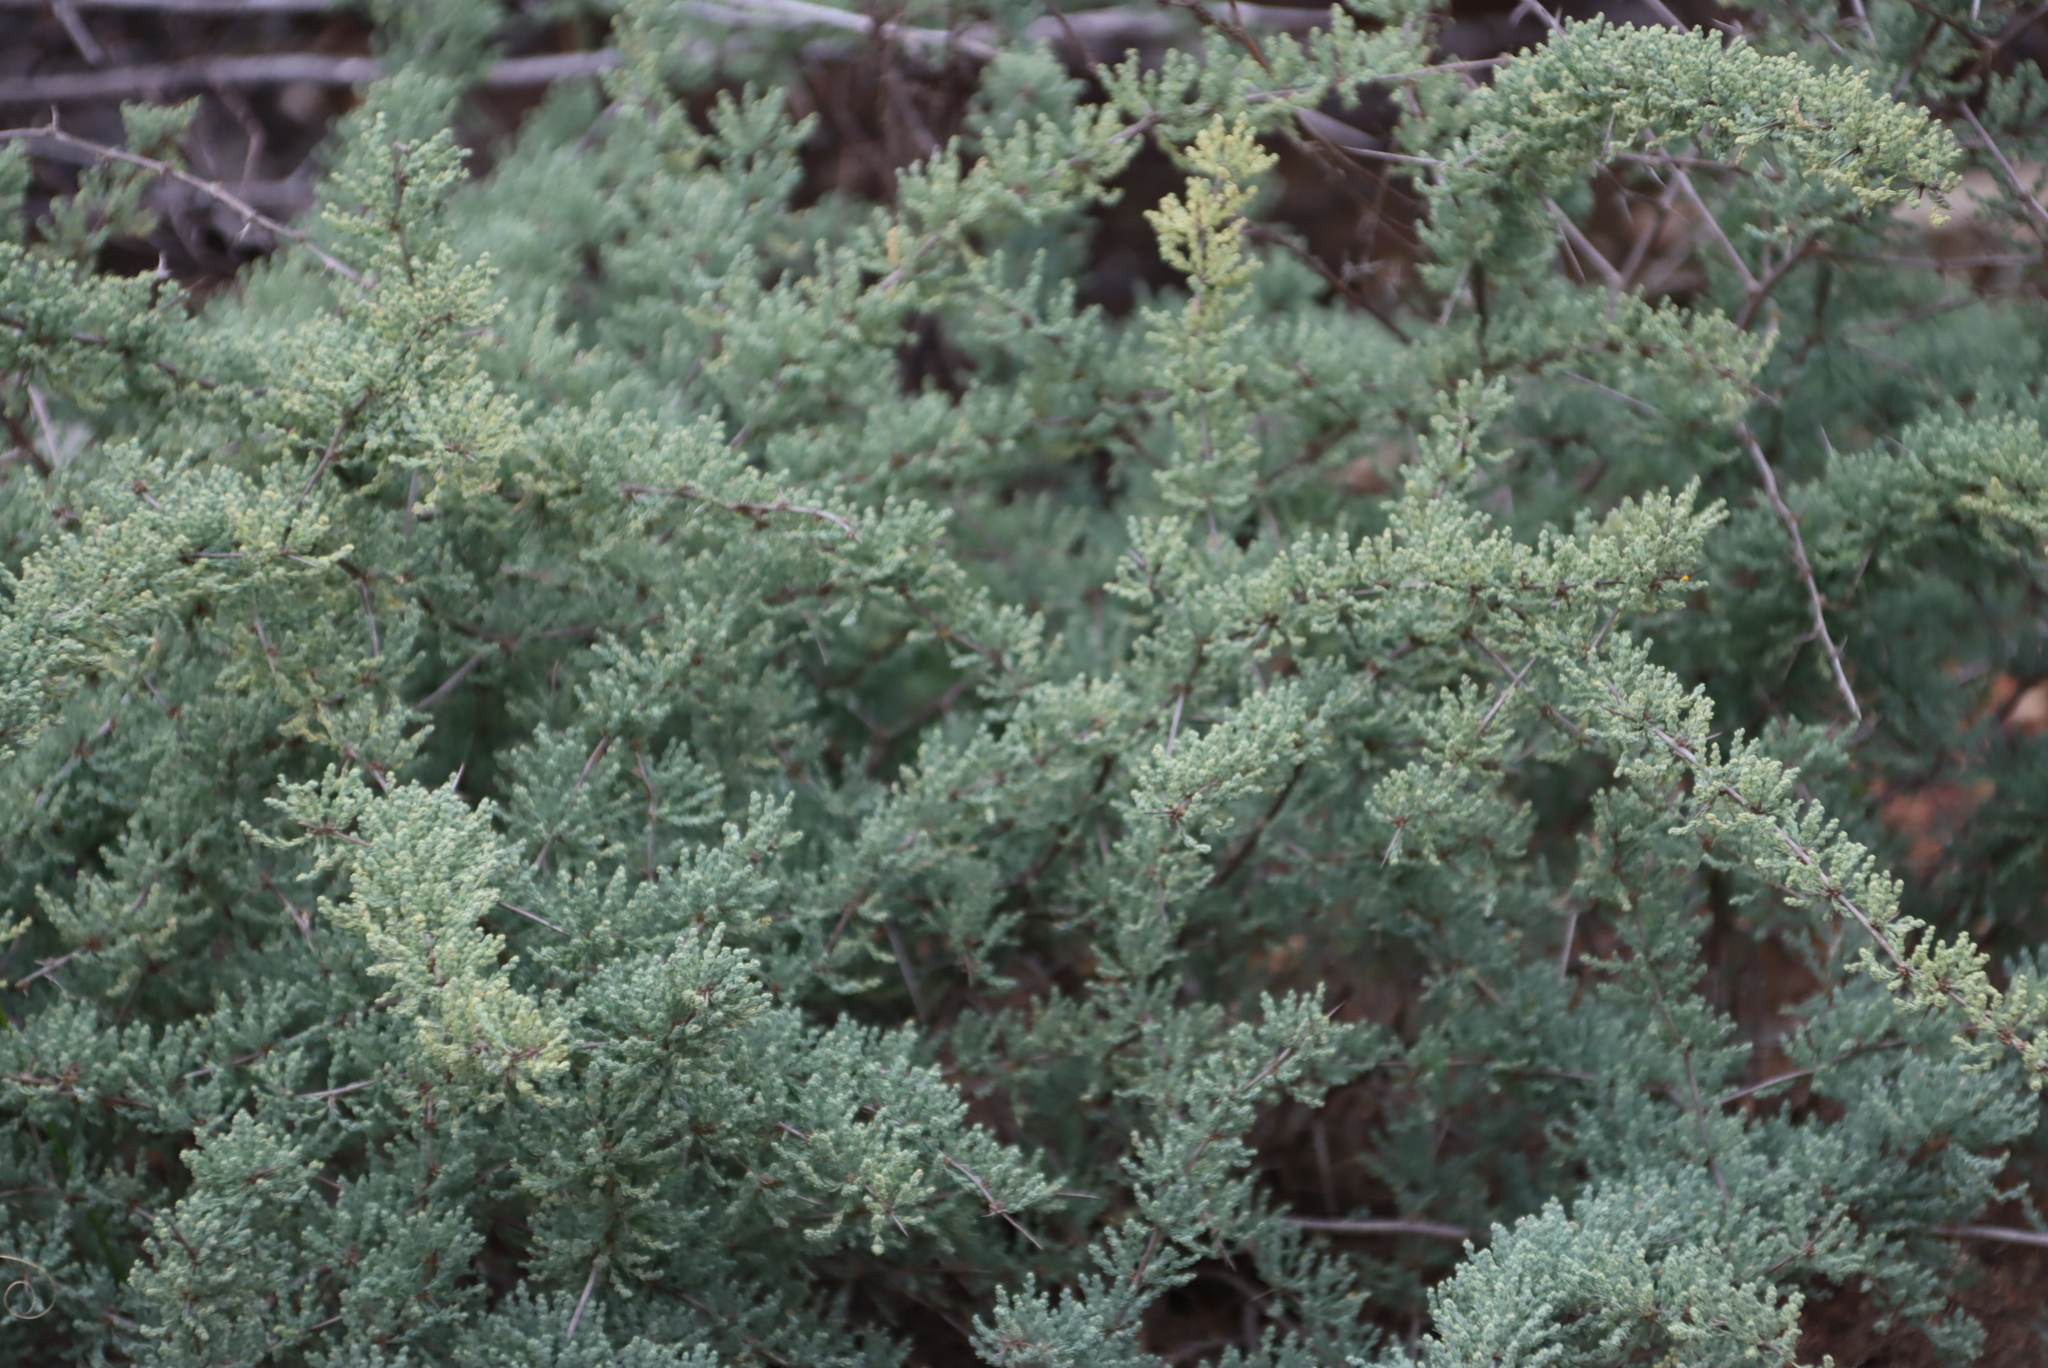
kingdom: Plantae
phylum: Tracheophyta
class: Liliopsida
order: Asparagales
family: Asparagaceae
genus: Asparagus
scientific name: Asparagus capensis
